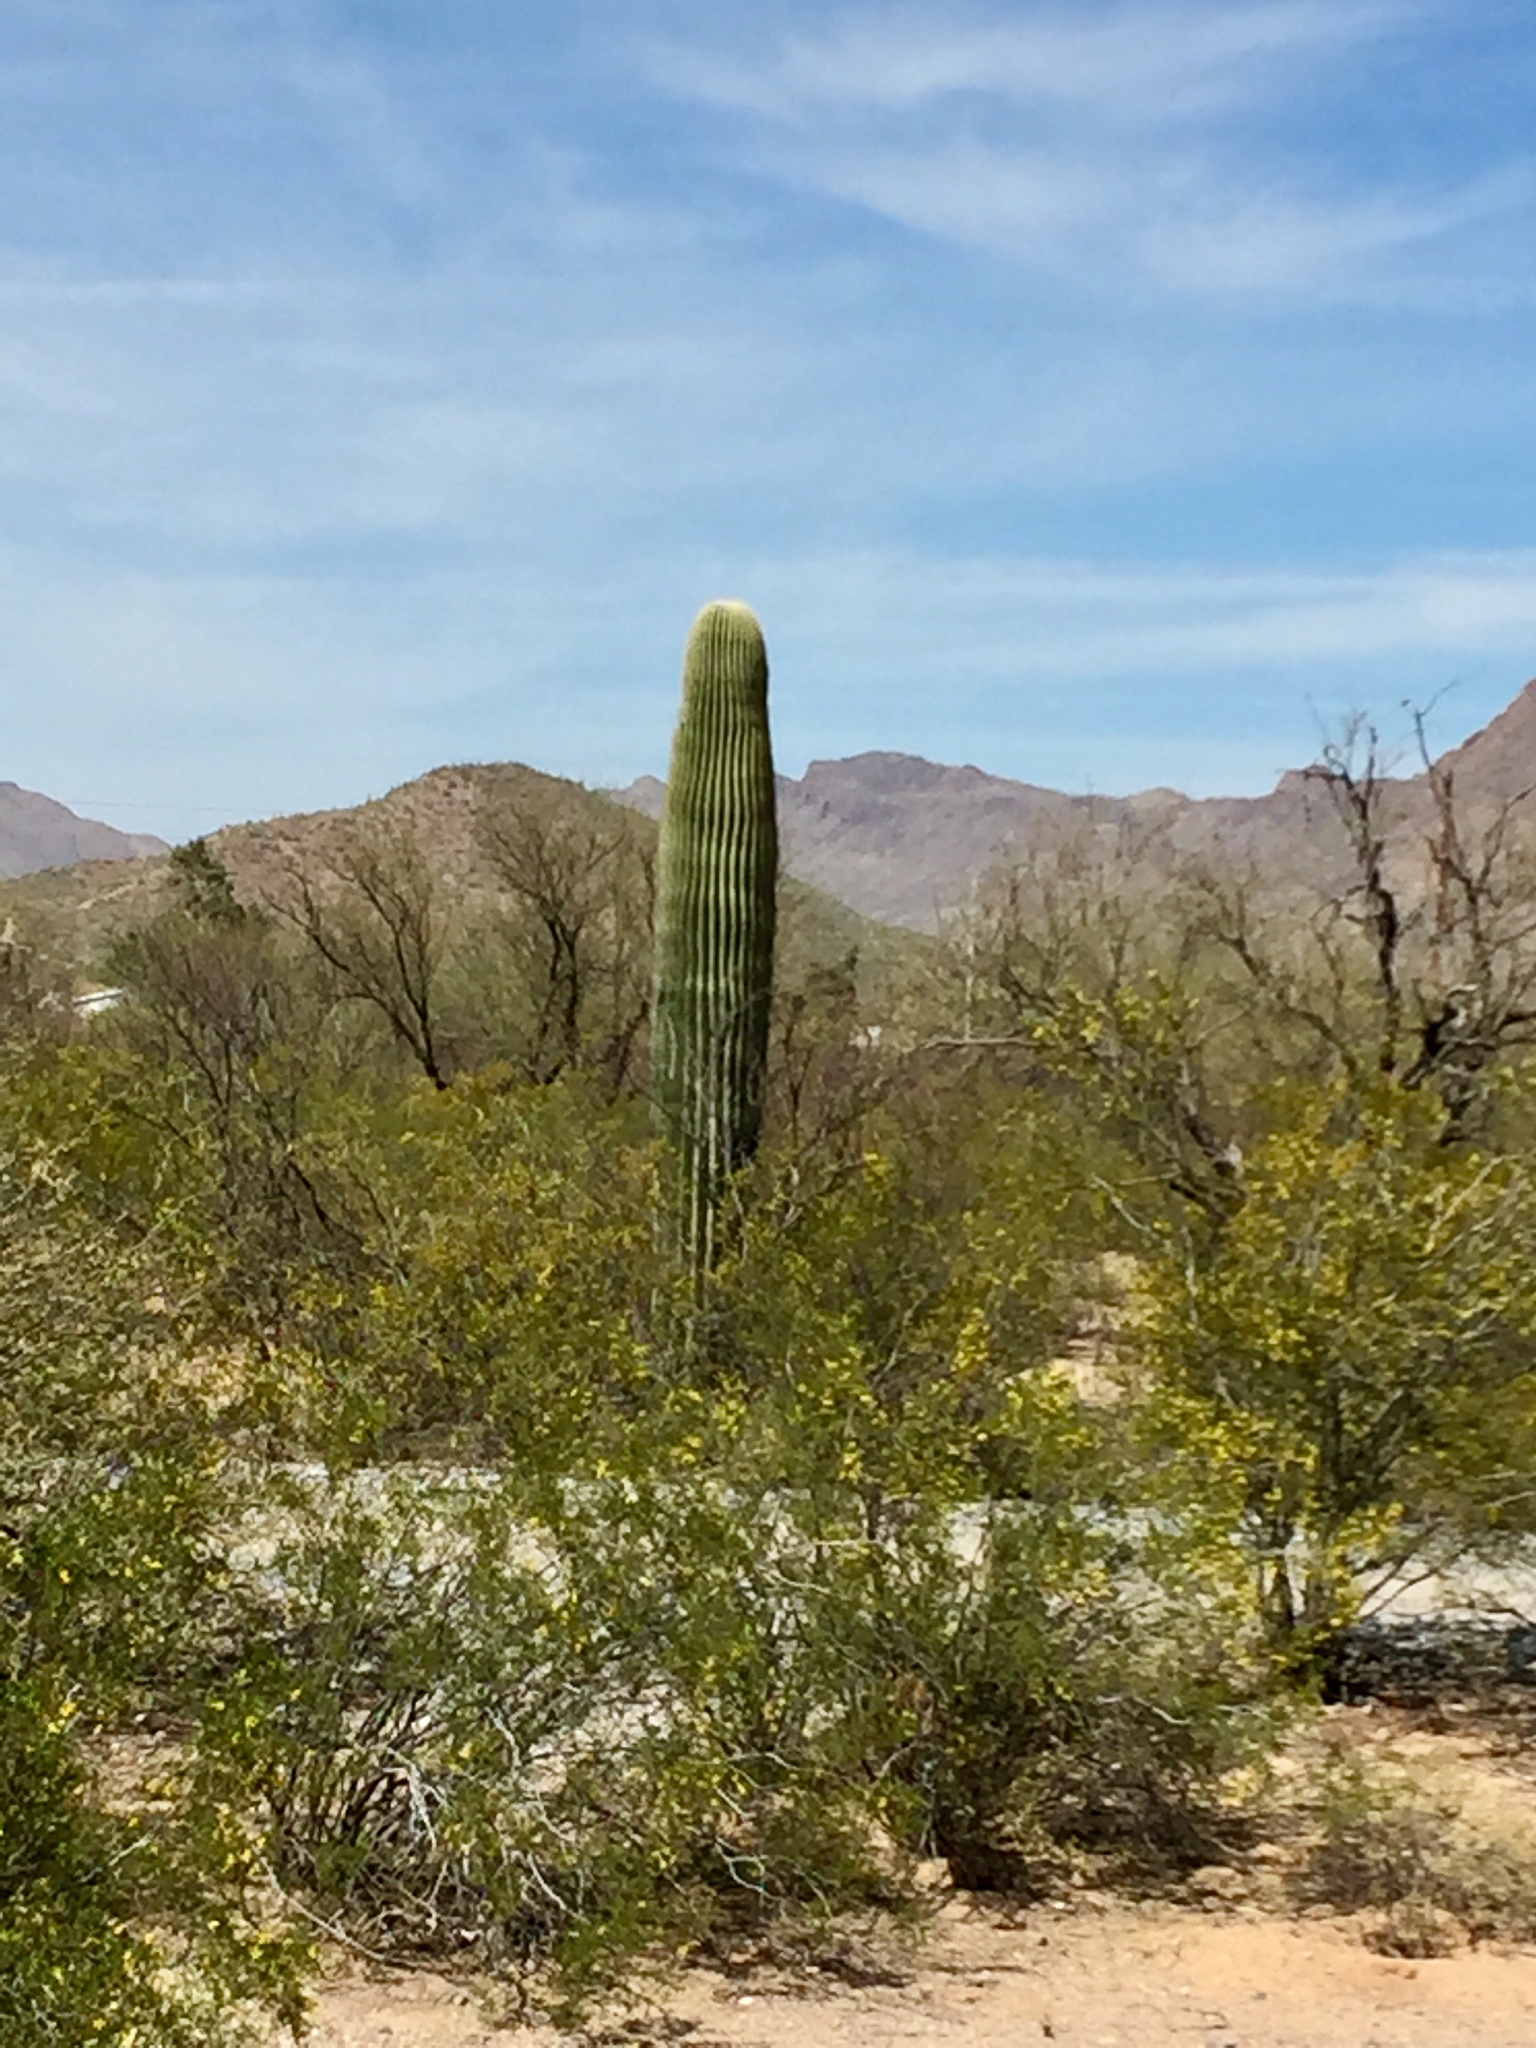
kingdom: Plantae
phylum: Tracheophyta
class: Magnoliopsida
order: Zygophyllales
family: Zygophyllaceae
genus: Larrea
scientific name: Larrea tridentata
